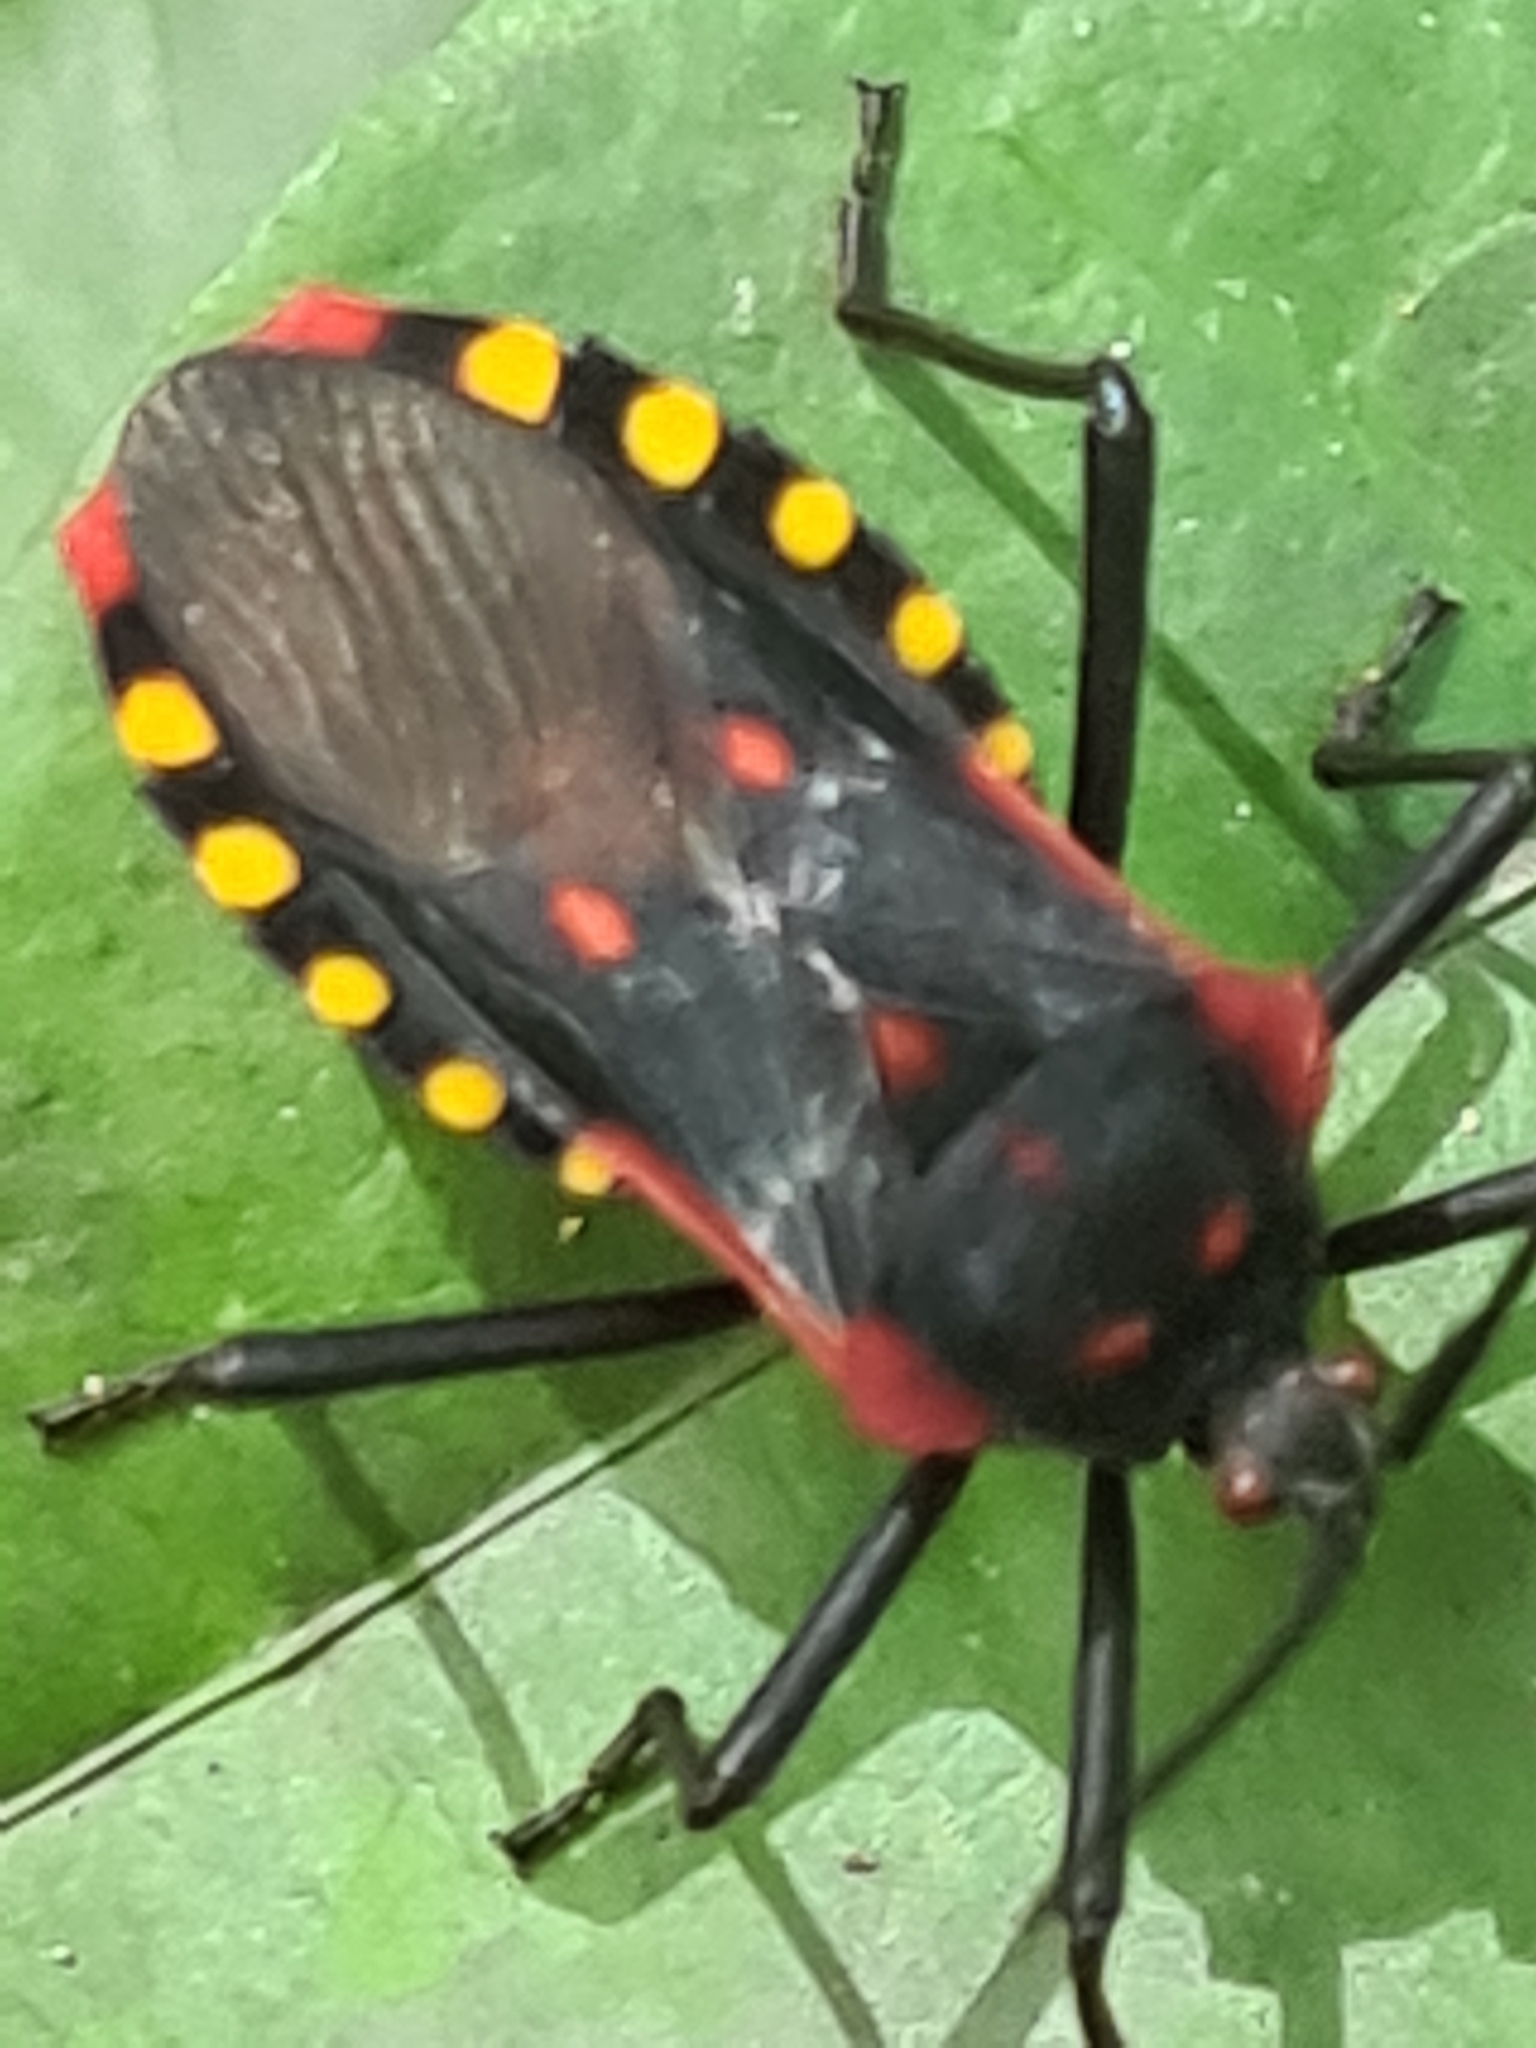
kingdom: Animalia
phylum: Arthropoda
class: Insecta
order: Hemiptera
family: Coreidae
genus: Sephina
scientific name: Sephina pustulata
